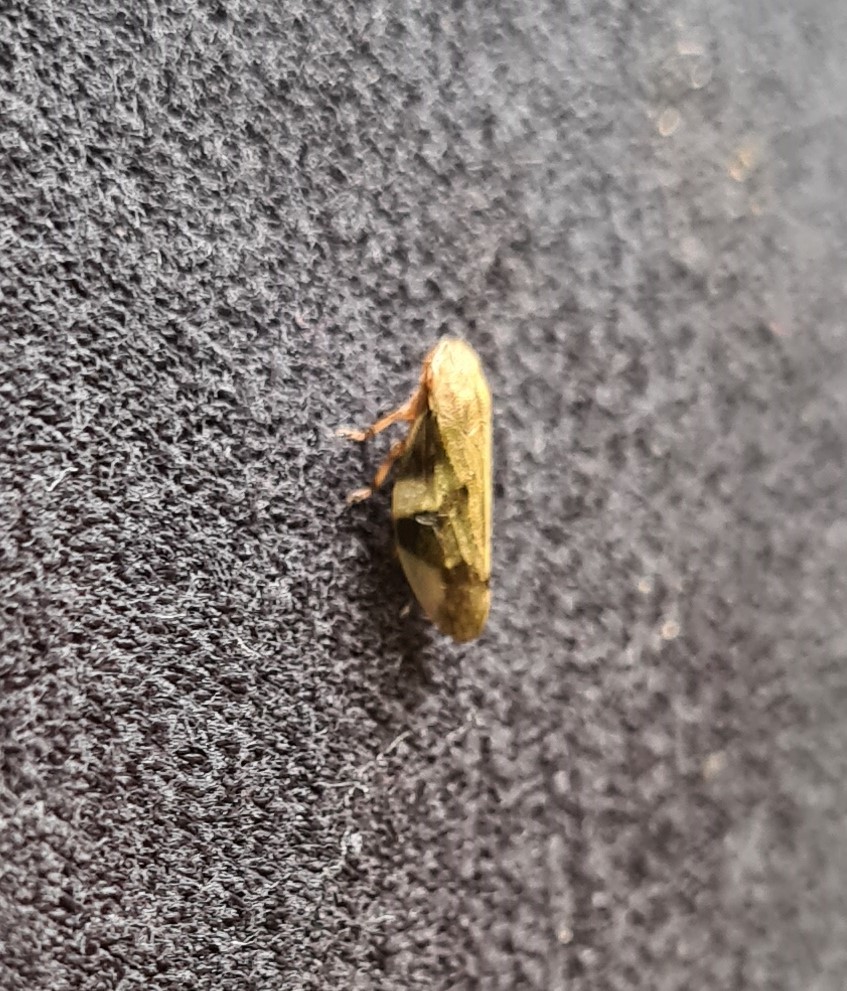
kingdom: Animalia
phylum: Arthropoda
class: Insecta
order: Hemiptera
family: Aphrophoridae
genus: Aphrophora
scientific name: Aphrophora alni
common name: European alder spittlebug
